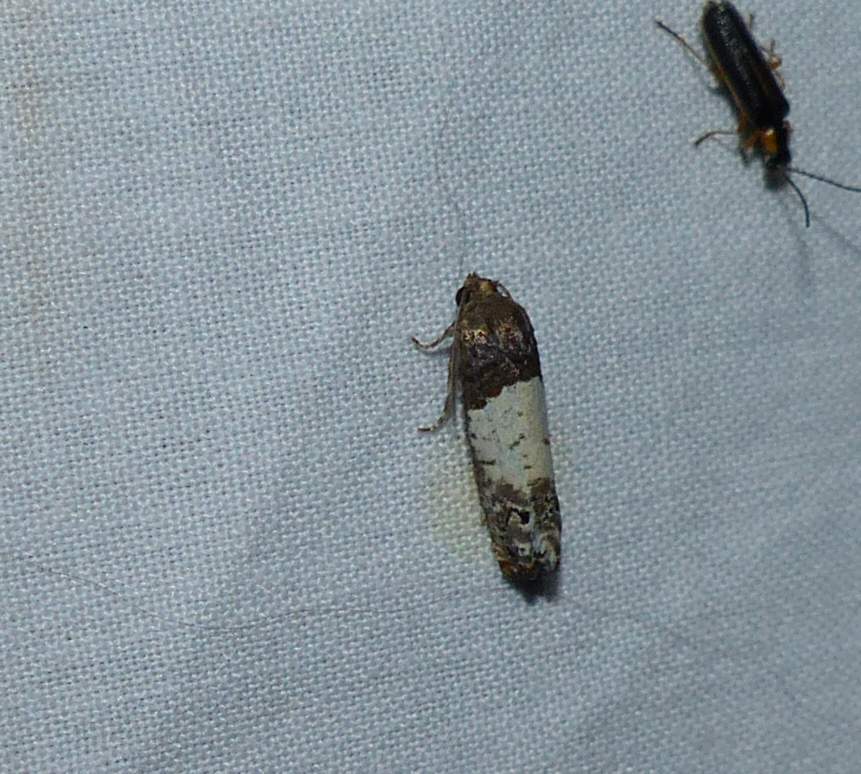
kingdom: Animalia
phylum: Arthropoda
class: Insecta
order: Lepidoptera
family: Tortricidae
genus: Epiblema
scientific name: Epiblema scudderiana
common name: Goldenrod gall moth
